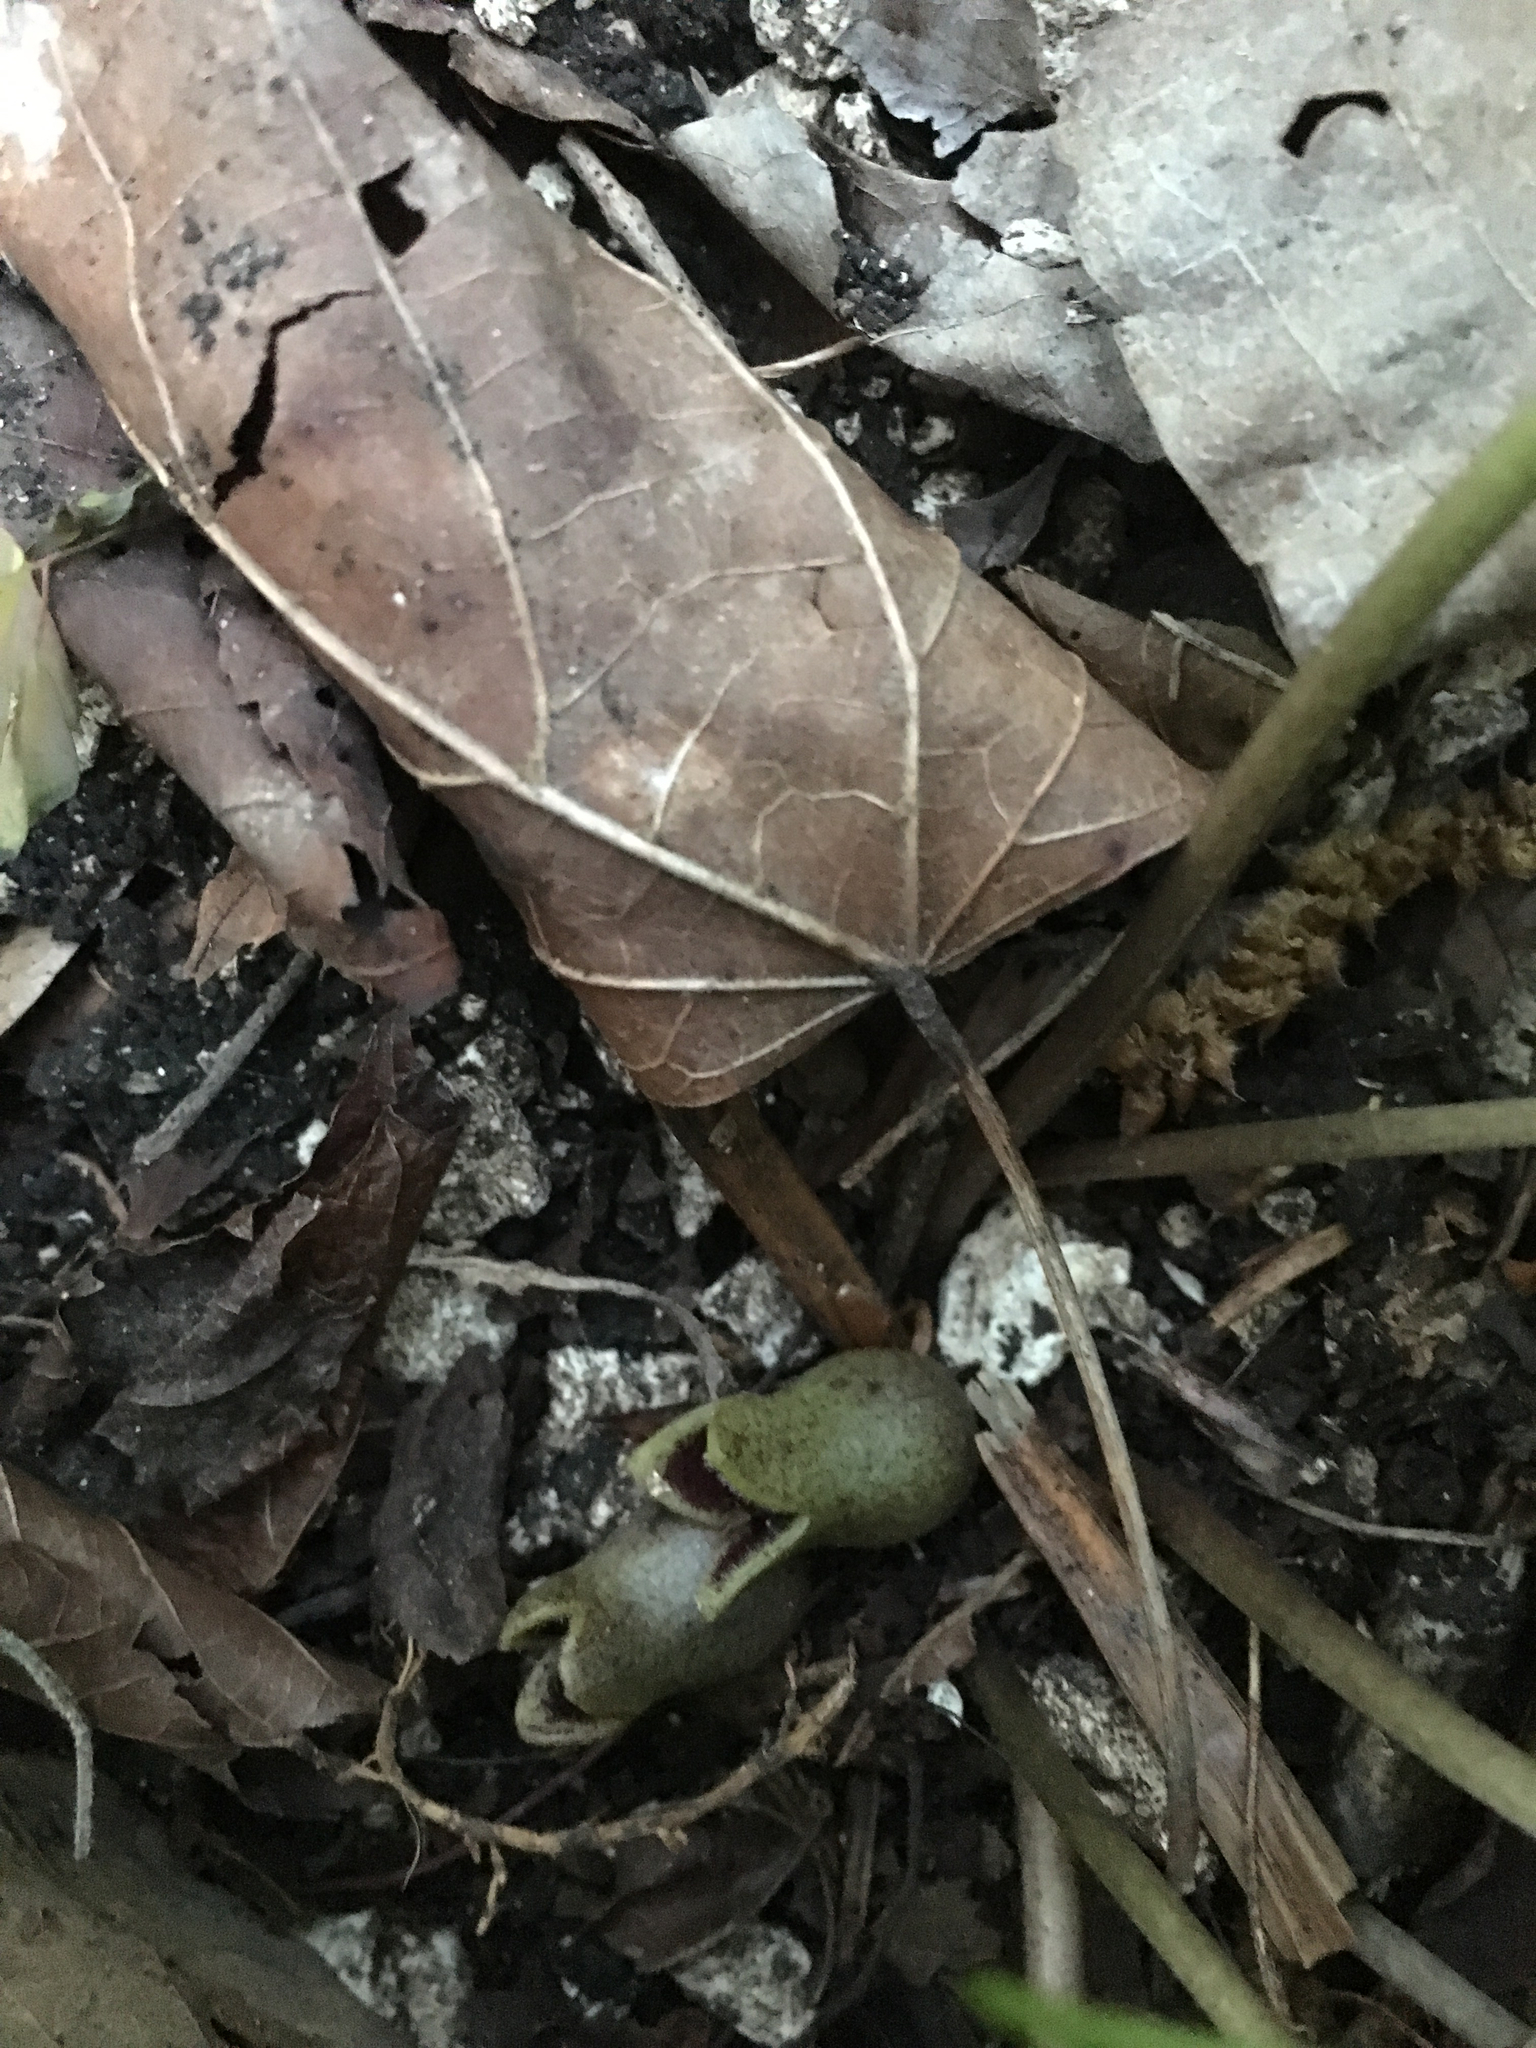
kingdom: Plantae
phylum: Tracheophyta
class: Magnoliopsida
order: Piperales
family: Aristolochiaceae
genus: Hexastylis
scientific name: Hexastylis arifolia
